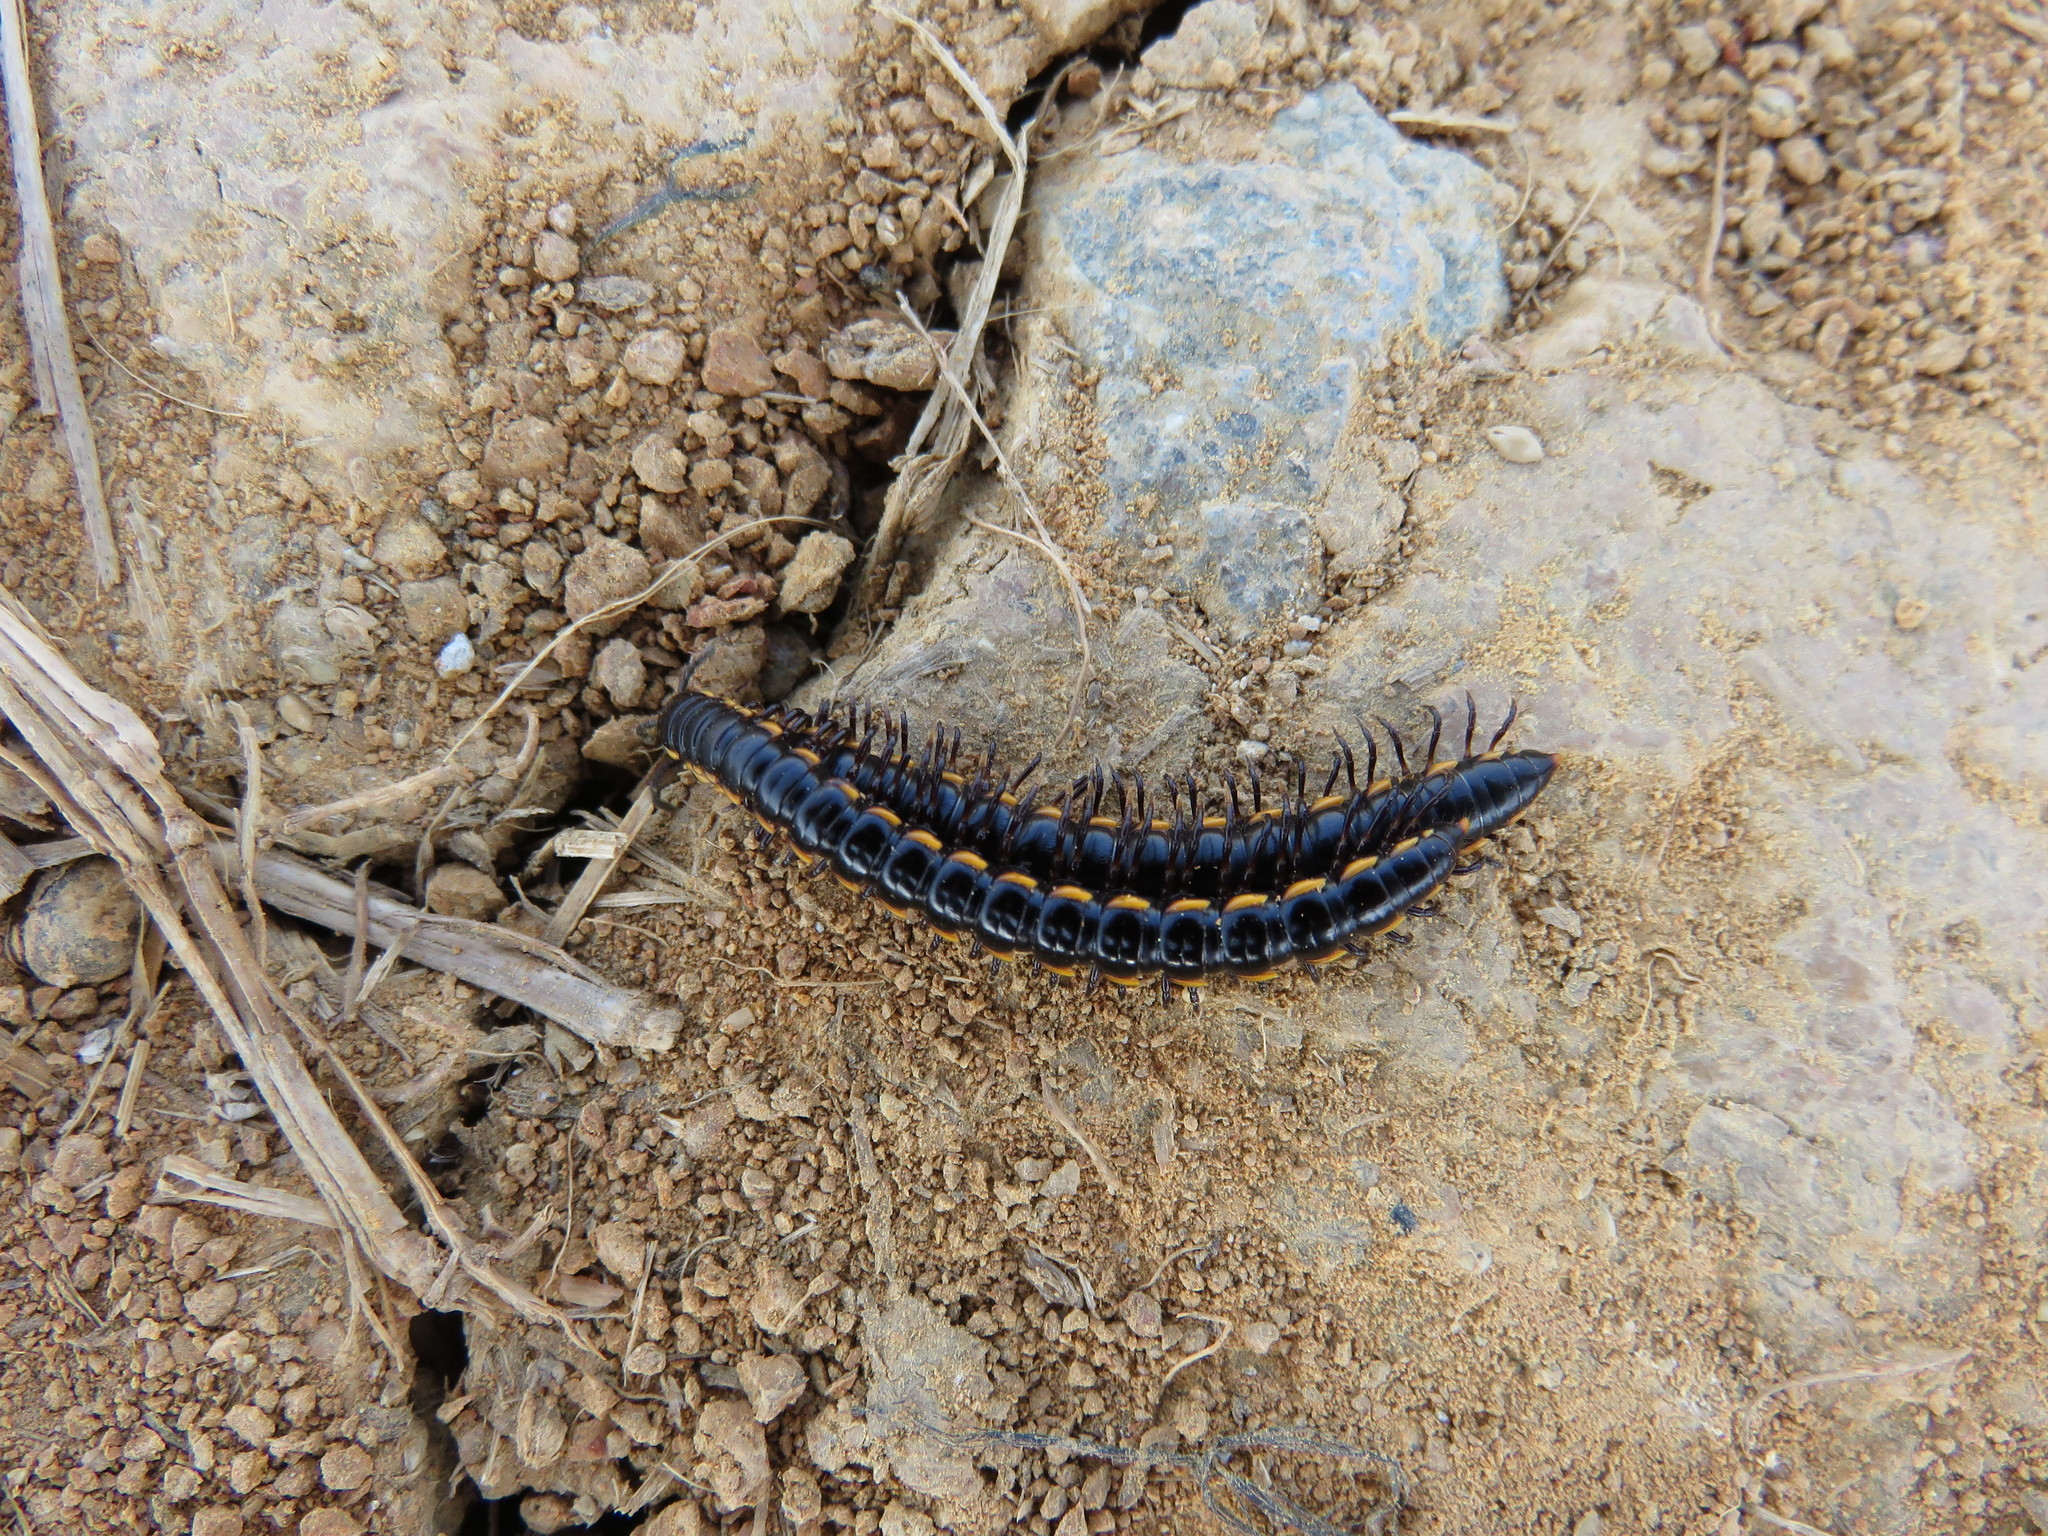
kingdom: Animalia
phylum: Arthropoda
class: Diplopoda
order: Polydesmida
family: Paradoxosomatidae
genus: Orthomorphella
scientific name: Orthomorphella pekuensis
